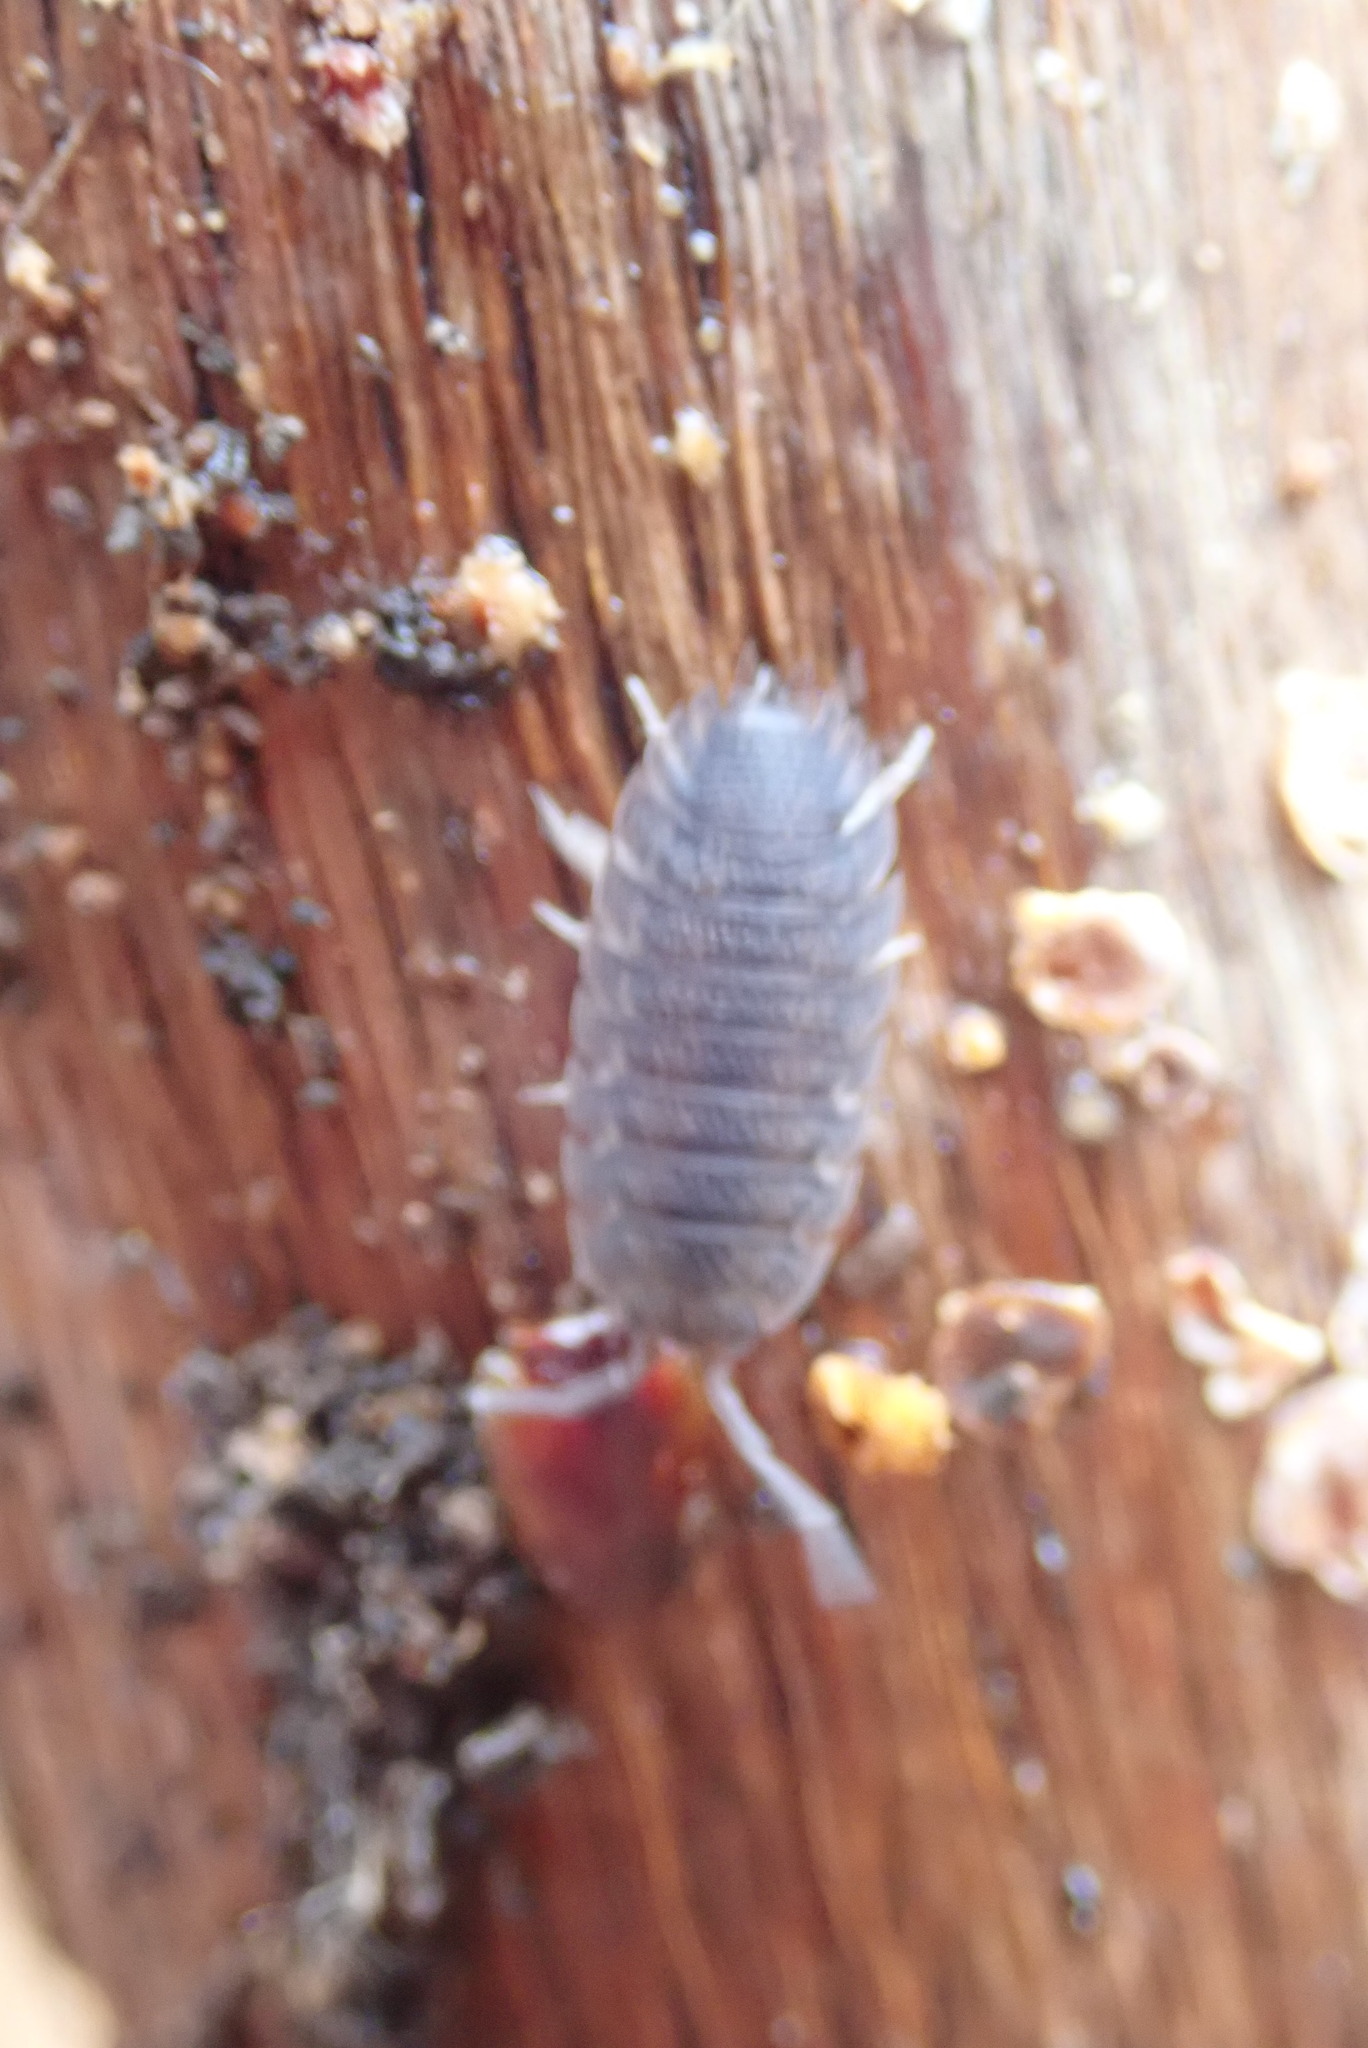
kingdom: Animalia
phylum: Arthropoda
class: Malacostraca
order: Isopoda
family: Porcellionidae
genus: Porcellio
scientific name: Porcellio scaber
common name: Common rough woodlouse
